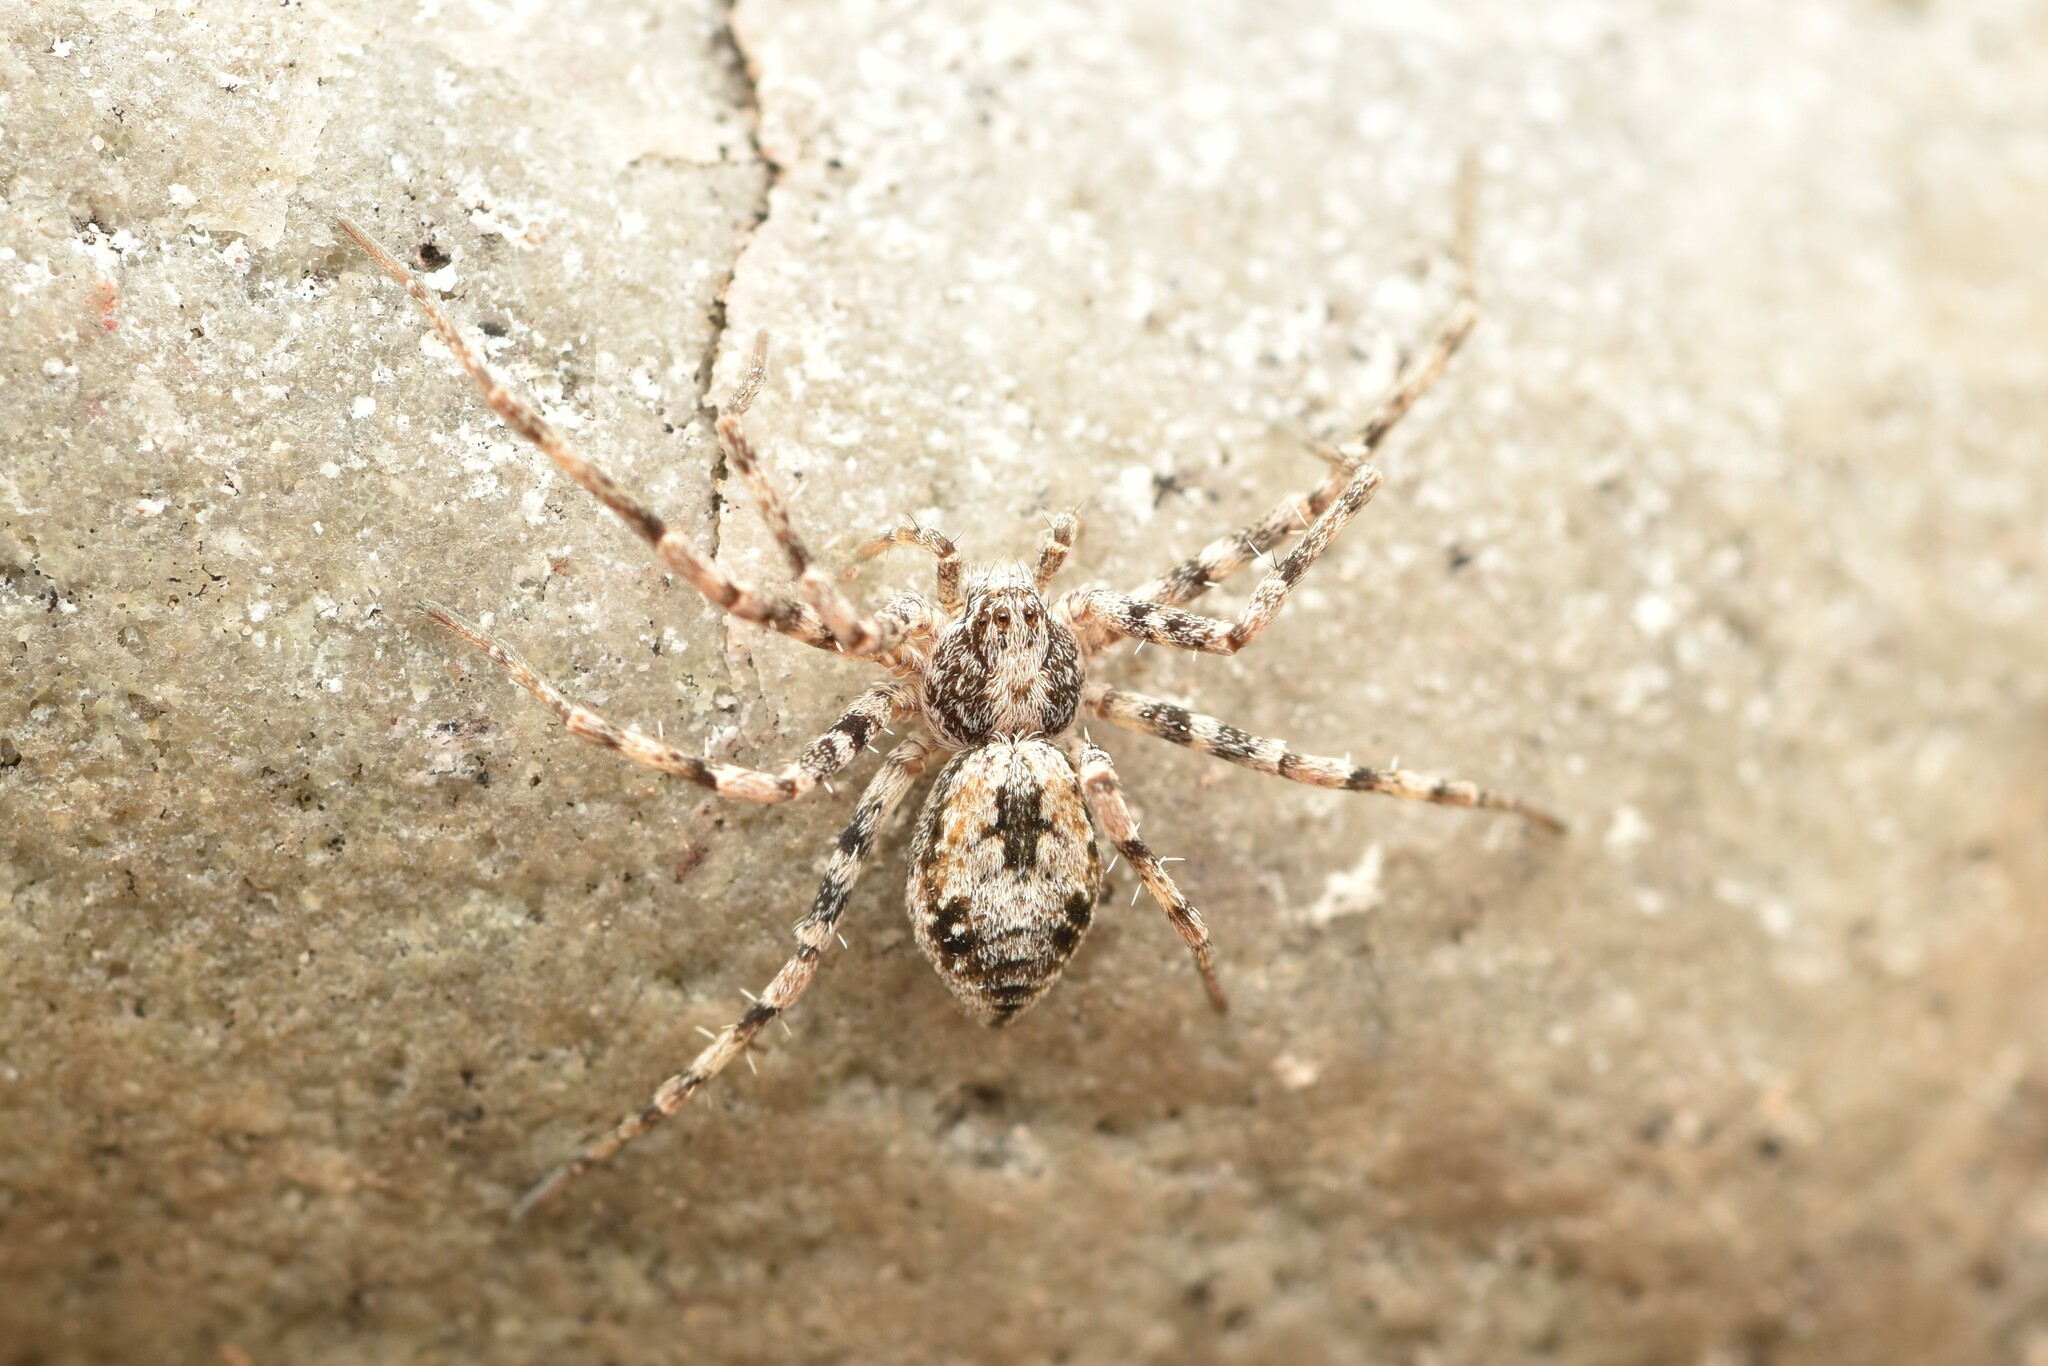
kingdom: Animalia
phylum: Arthropoda
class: Arachnida
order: Araneae
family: Philodromidae
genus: Rhysodromus
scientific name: Rhysodromus alascensis
